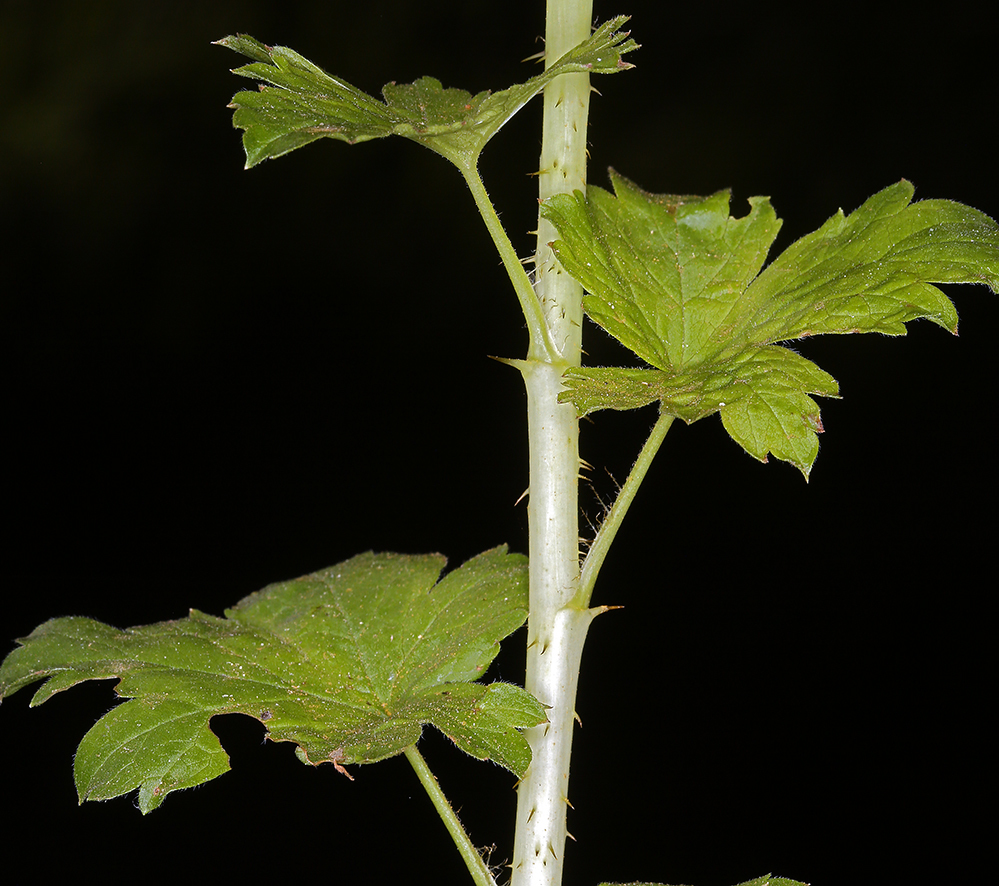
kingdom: Plantae
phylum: Tracheophyta
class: Magnoliopsida
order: Saxifragales
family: Grossulariaceae
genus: Ribes
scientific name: Ribes inerme
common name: White-stem gooseberry
